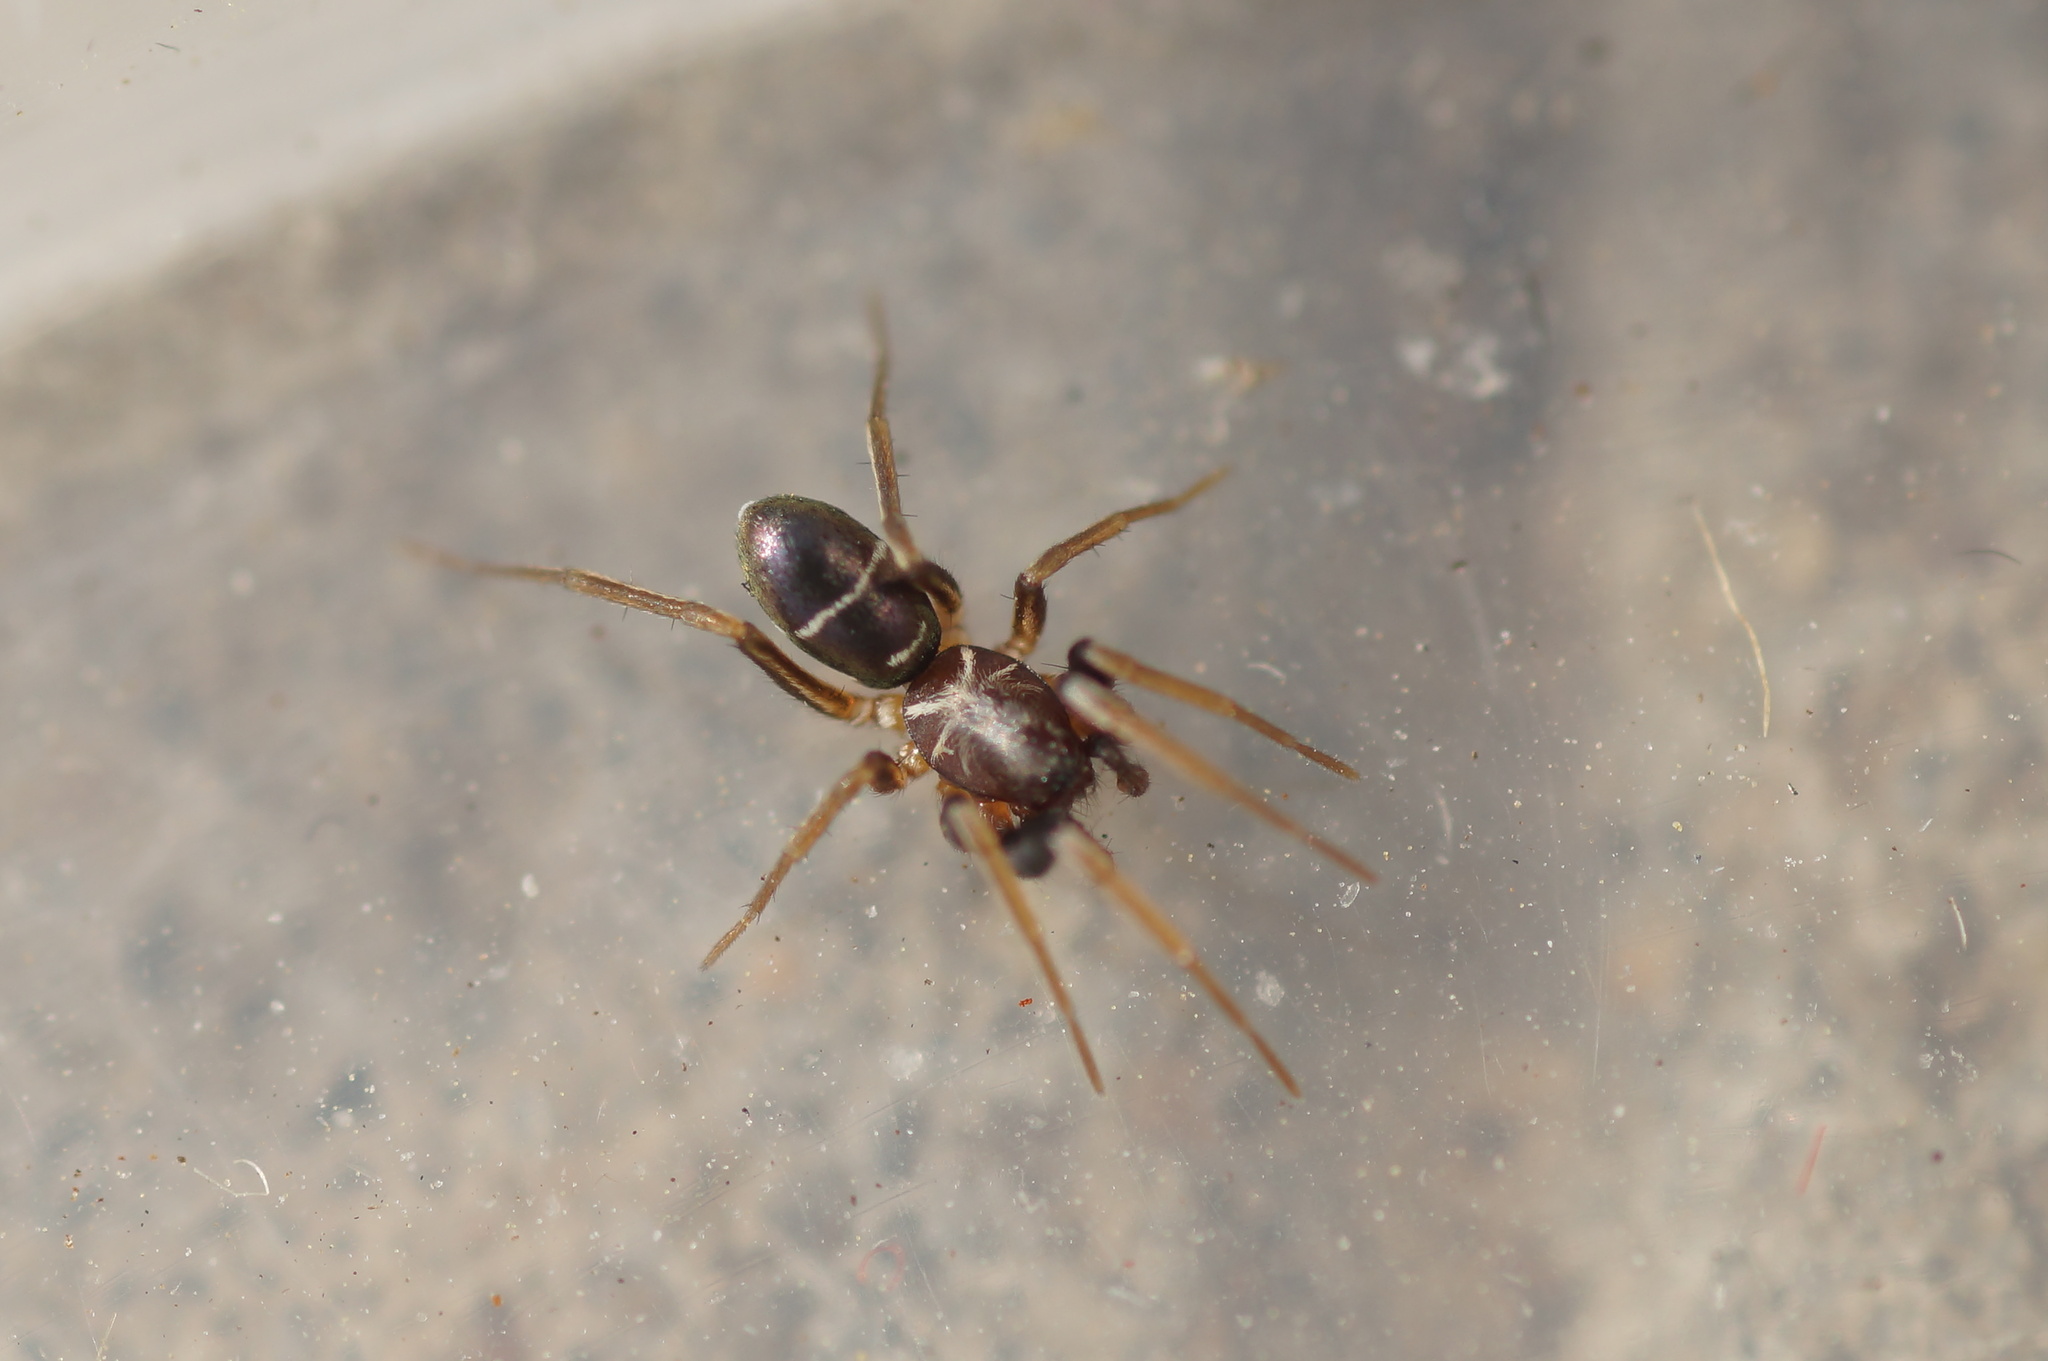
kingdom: Animalia
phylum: Arthropoda
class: Arachnida
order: Araneae
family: Gnaphosidae
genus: Micaria
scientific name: Micaria micans
